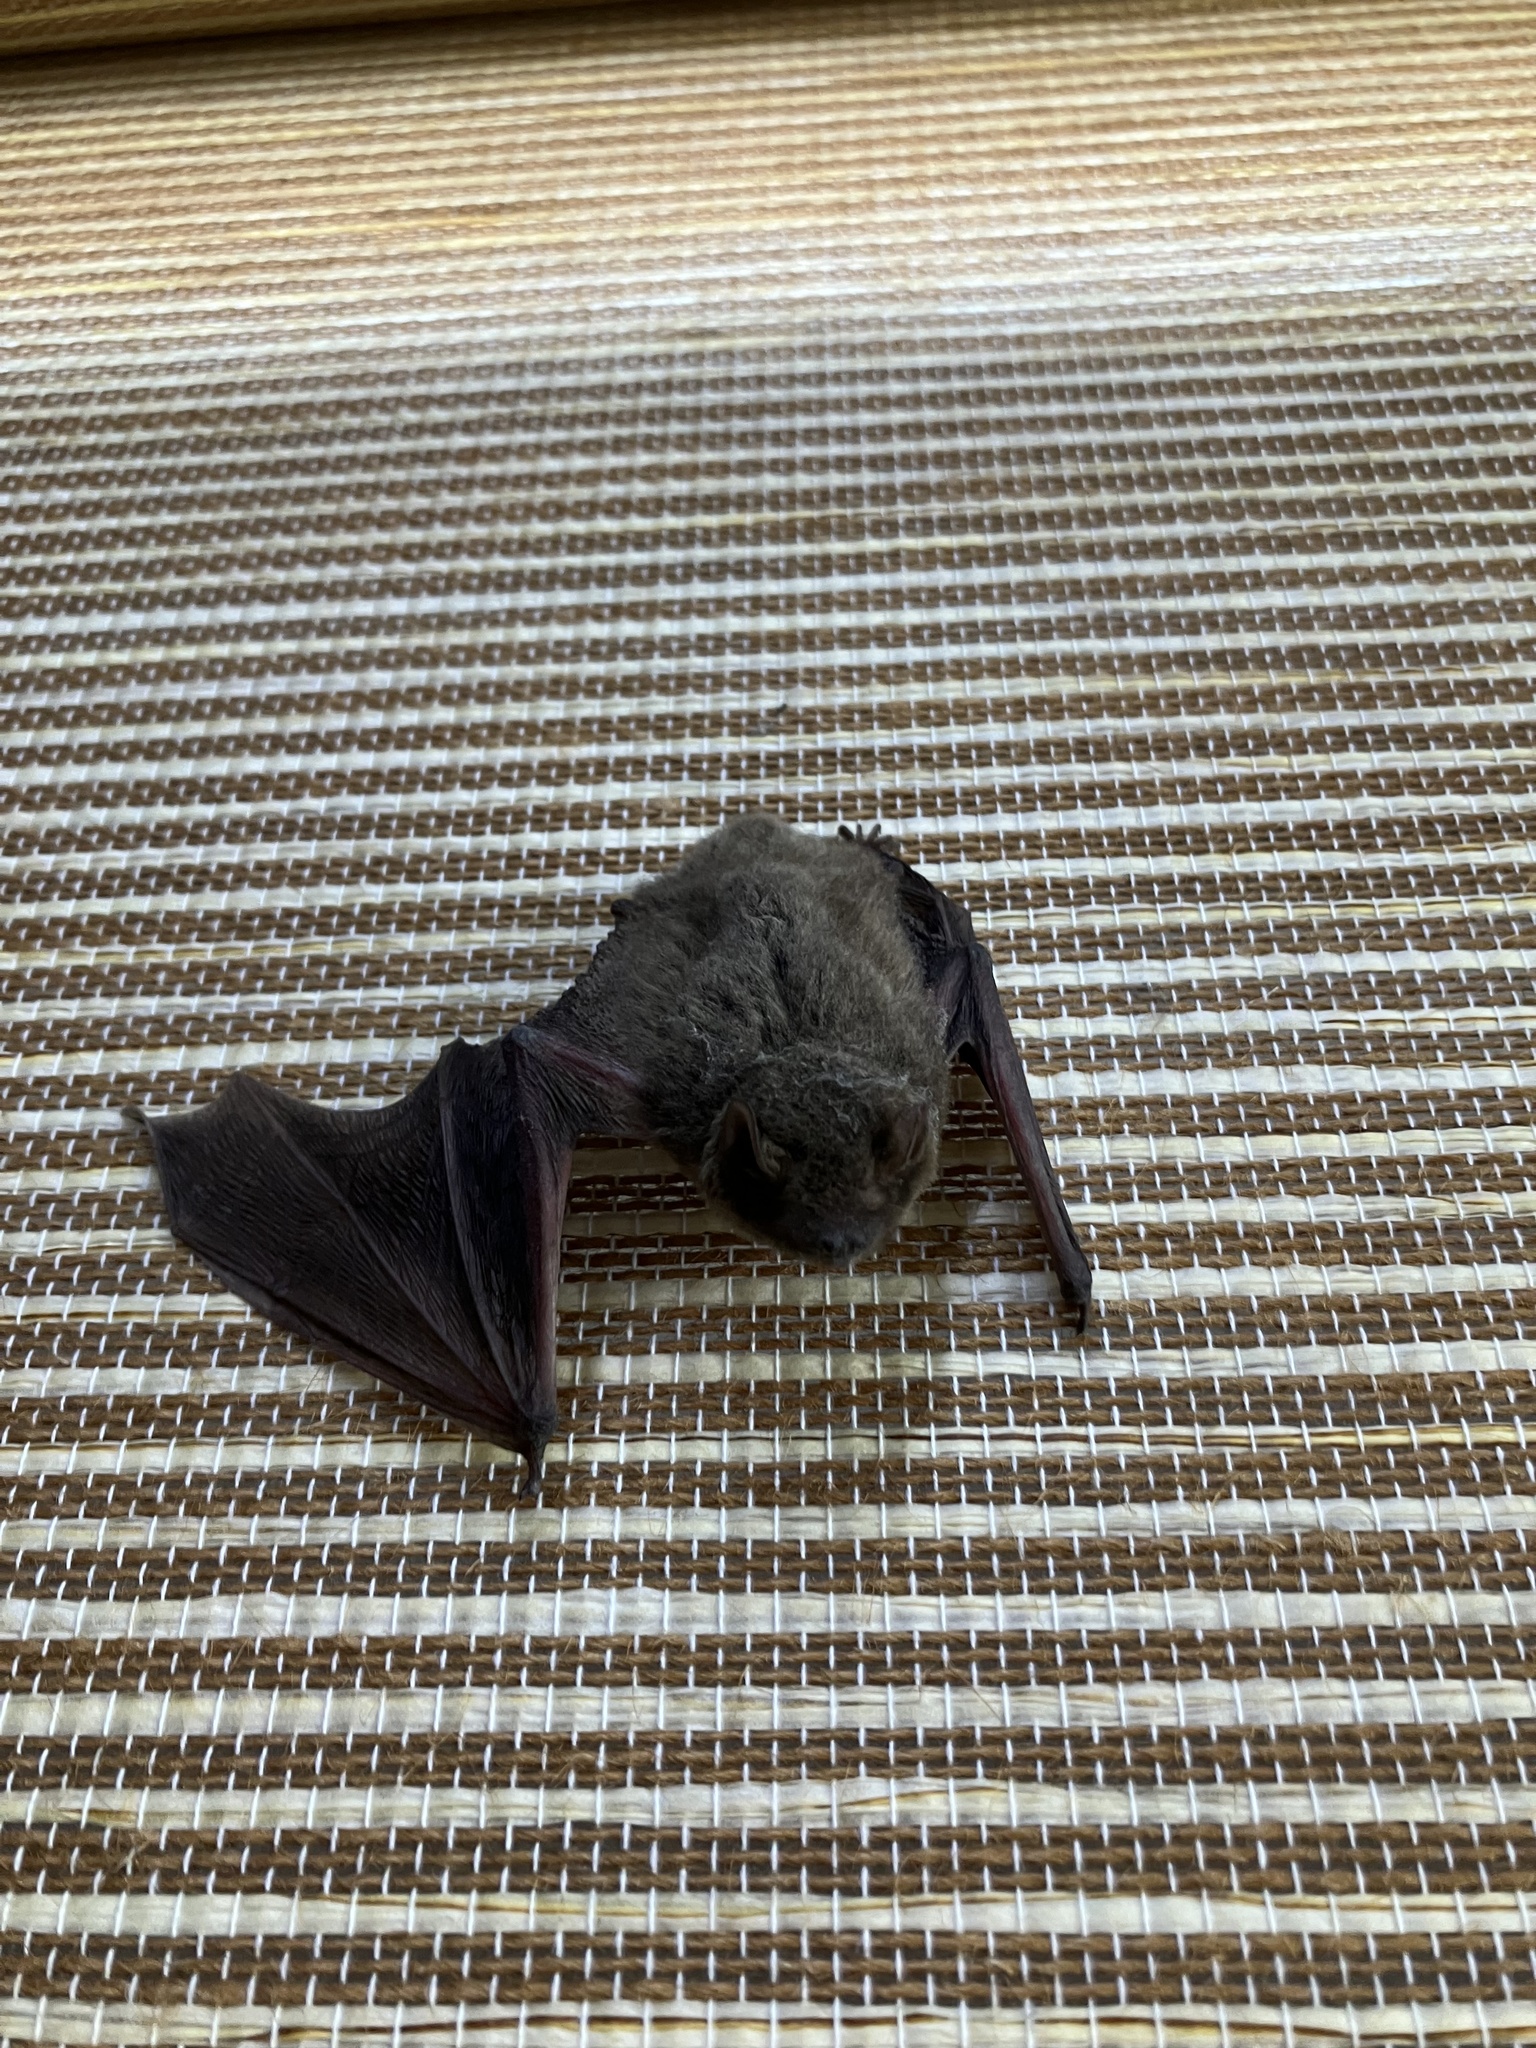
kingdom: Animalia
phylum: Chordata
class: Mammalia
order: Chiroptera
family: Vespertilionidae
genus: Pipistrellus
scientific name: Pipistrellus abramus
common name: Japanese pipistrelle
